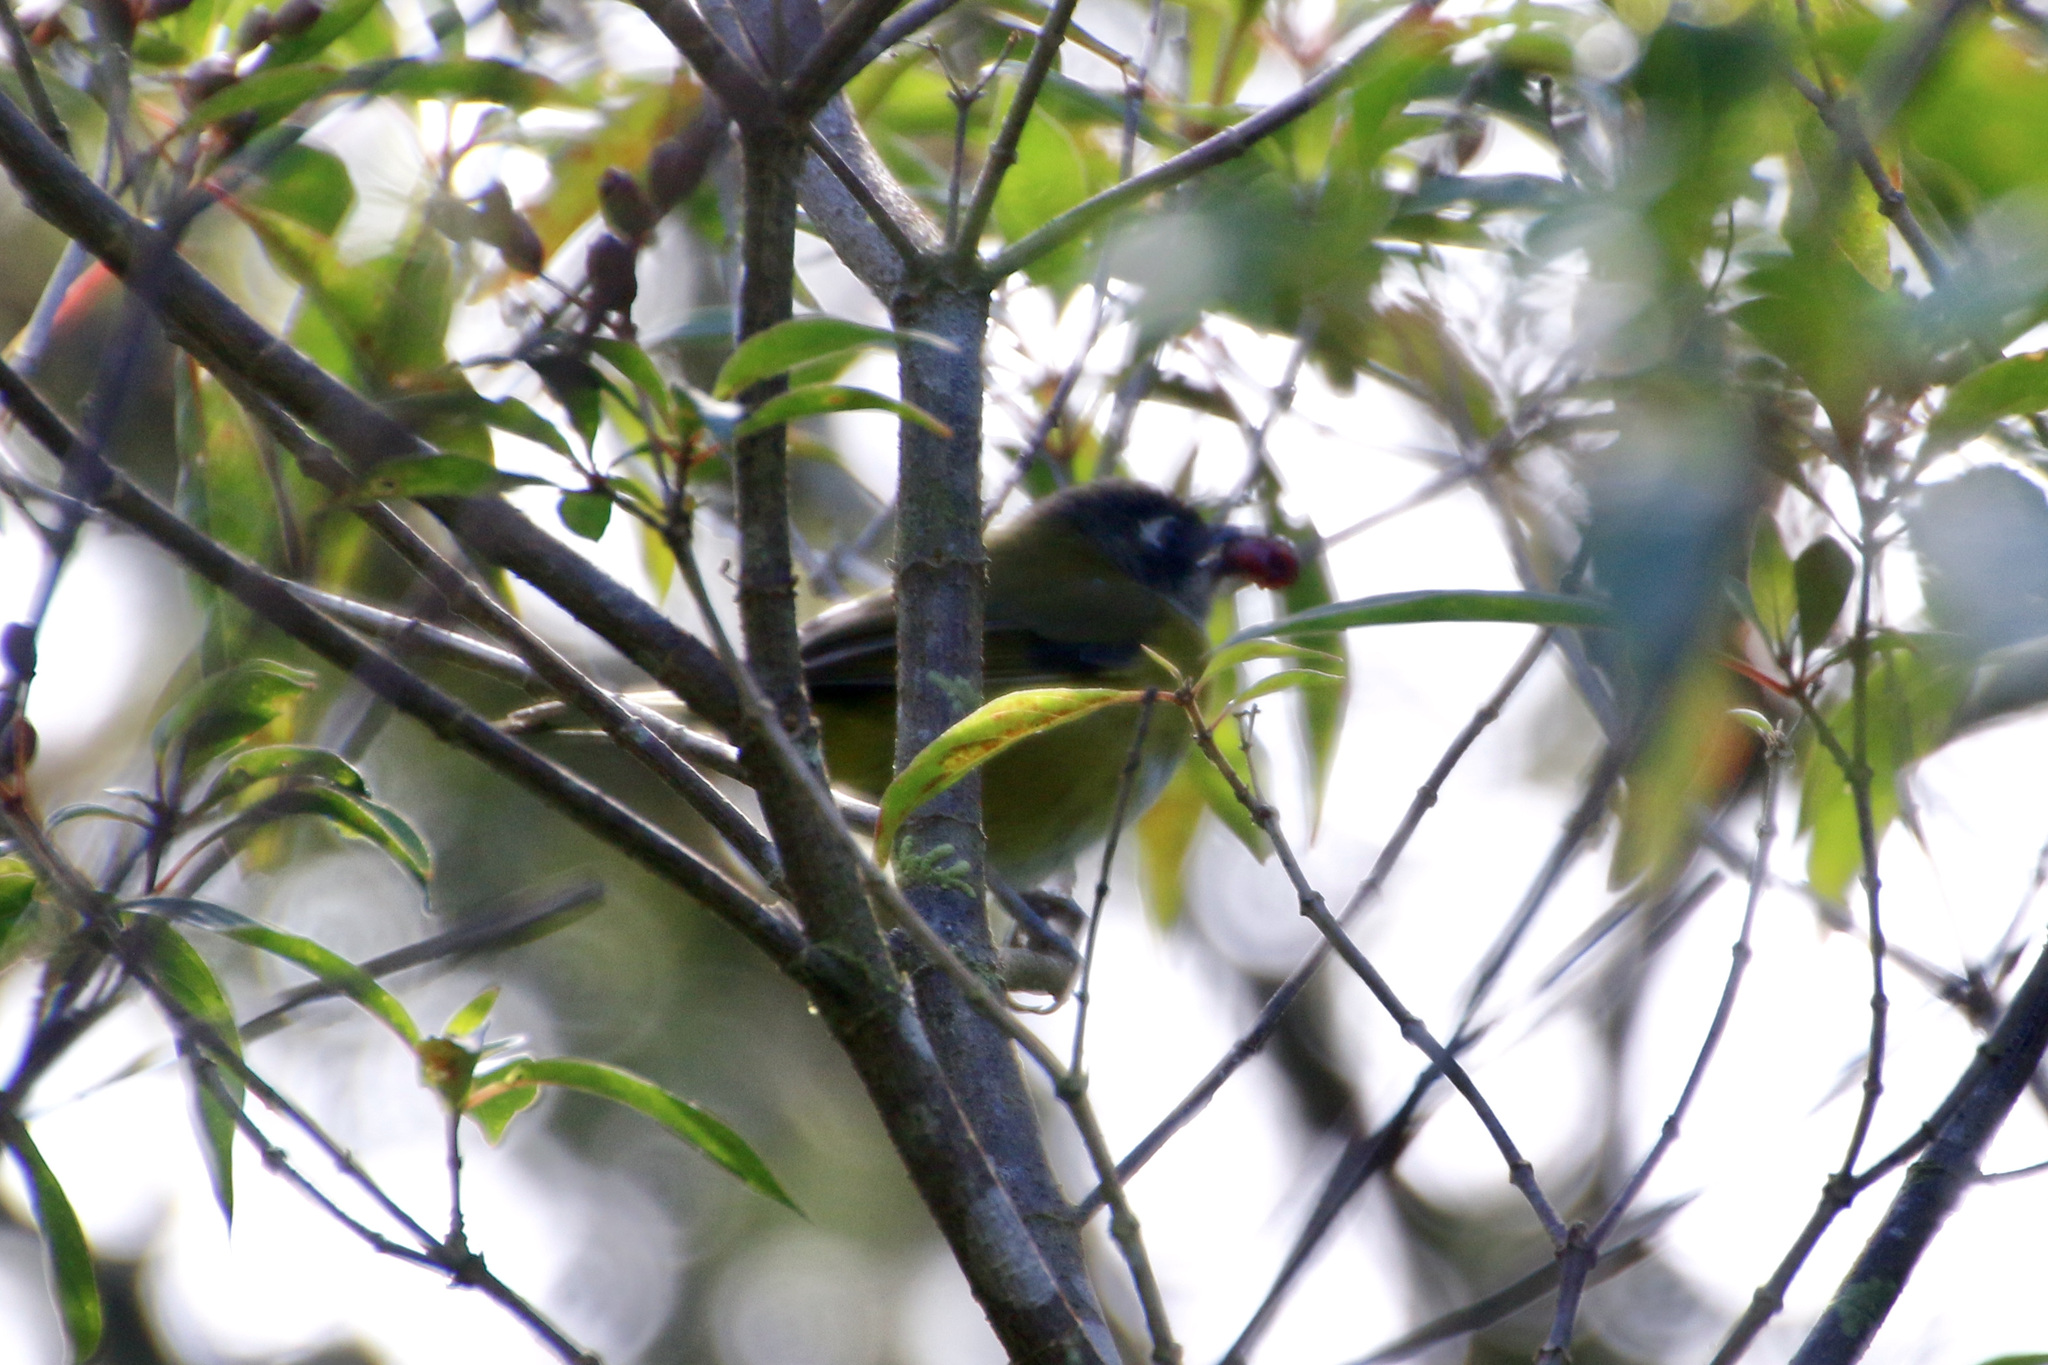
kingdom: Animalia
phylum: Chordata
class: Aves
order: Passeriformes
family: Passerellidae
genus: Chlorospingus
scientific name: Chlorospingus flavopectus
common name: Common chlorospingus
